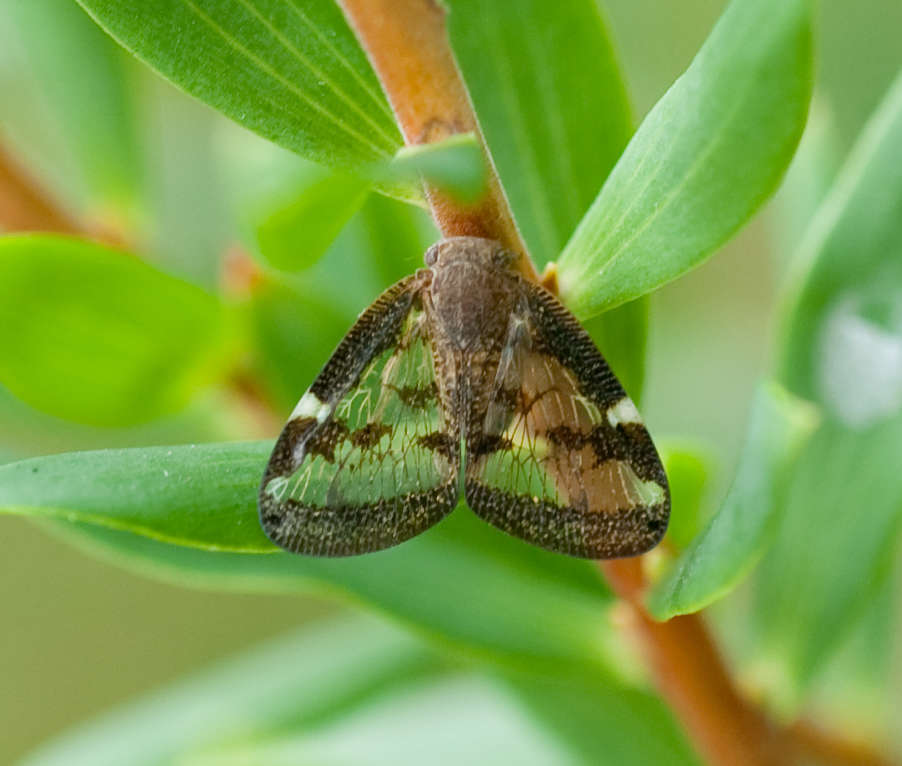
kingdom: Animalia
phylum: Arthropoda
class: Insecta
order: Hemiptera
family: Ricaniidae
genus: Scolypopa
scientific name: Scolypopa australis
